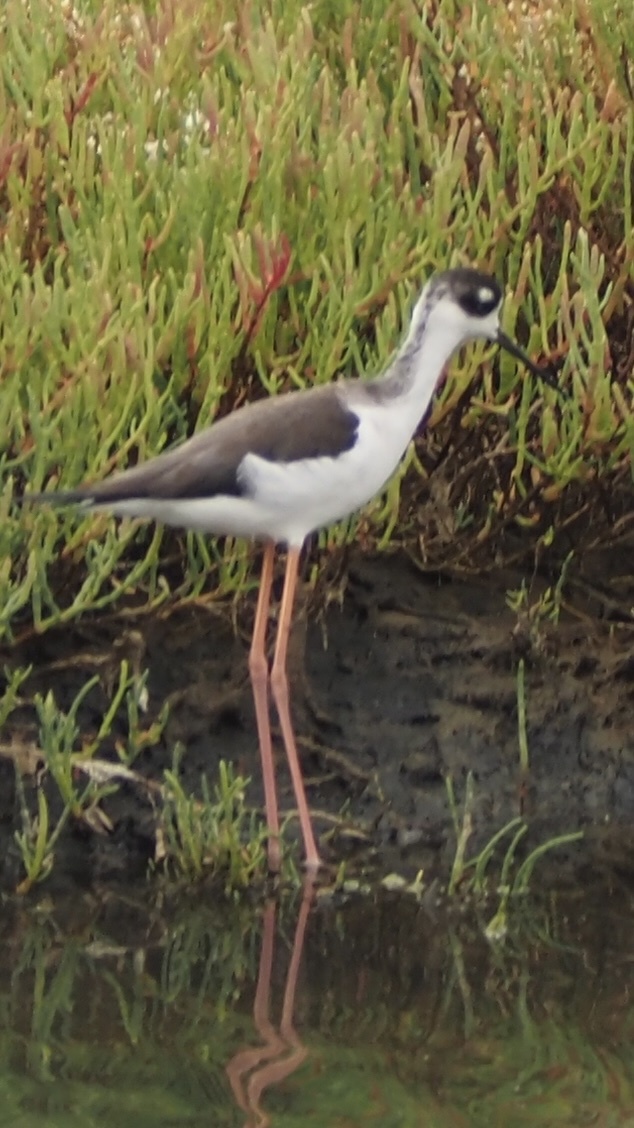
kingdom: Animalia
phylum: Chordata
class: Aves
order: Charadriiformes
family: Recurvirostridae
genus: Himantopus
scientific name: Himantopus mexicanus
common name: Black-necked stilt
